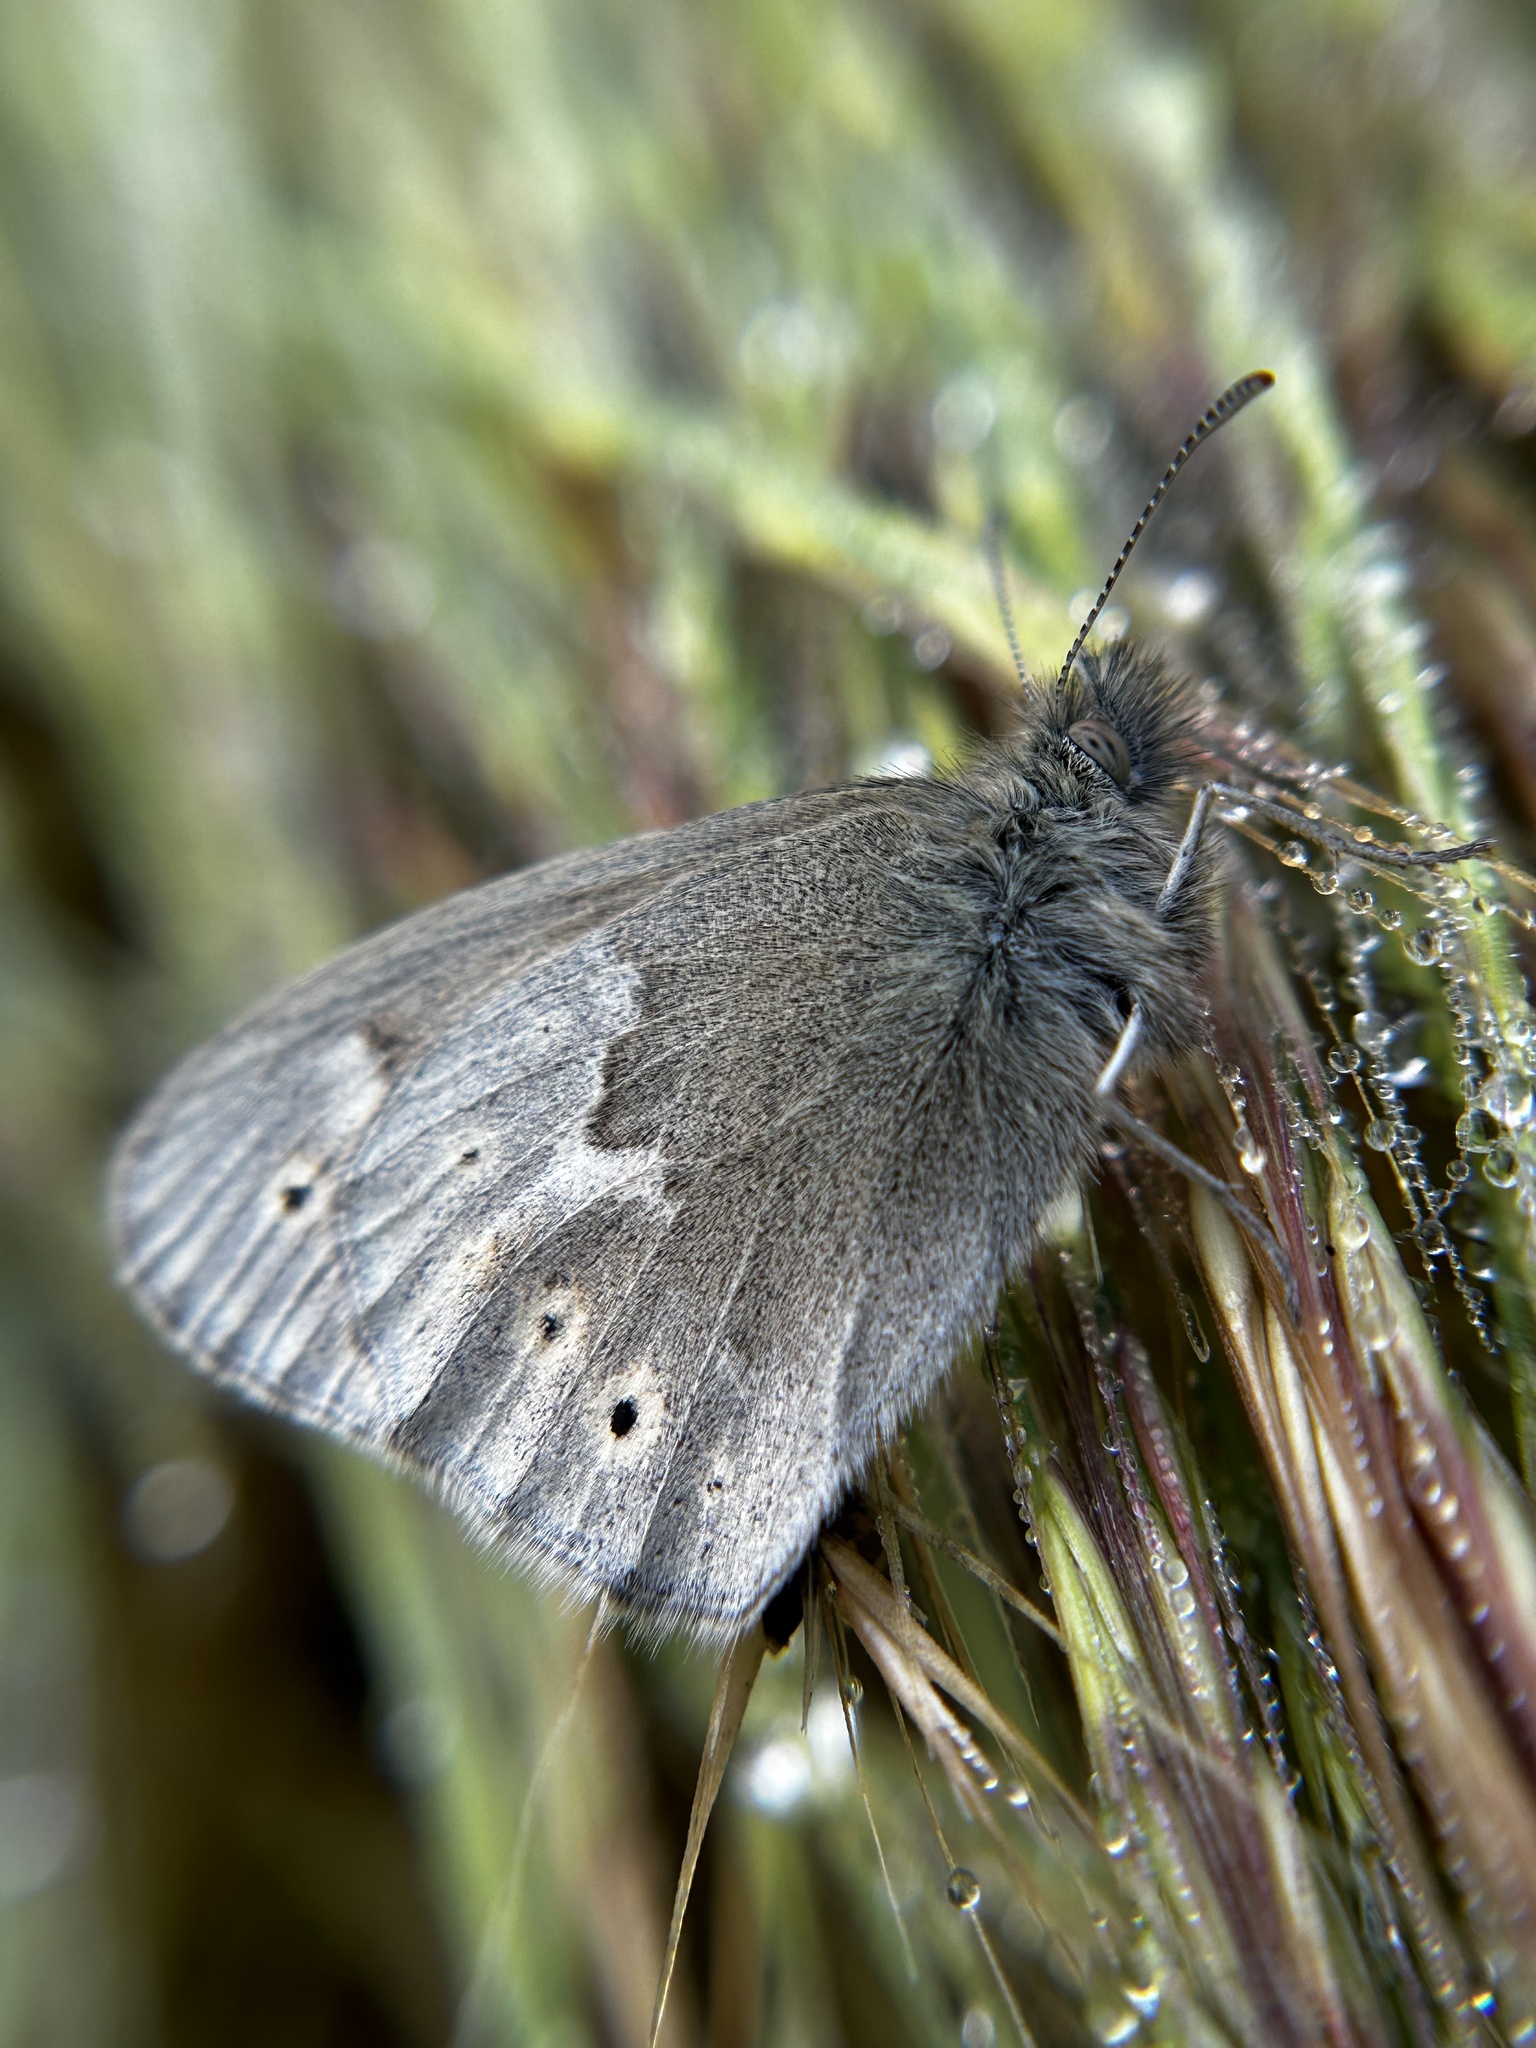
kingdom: Animalia
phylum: Arthropoda
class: Insecta
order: Lepidoptera
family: Nymphalidae
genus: Coenonympha
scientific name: Coenonympha california
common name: Common ringlet
